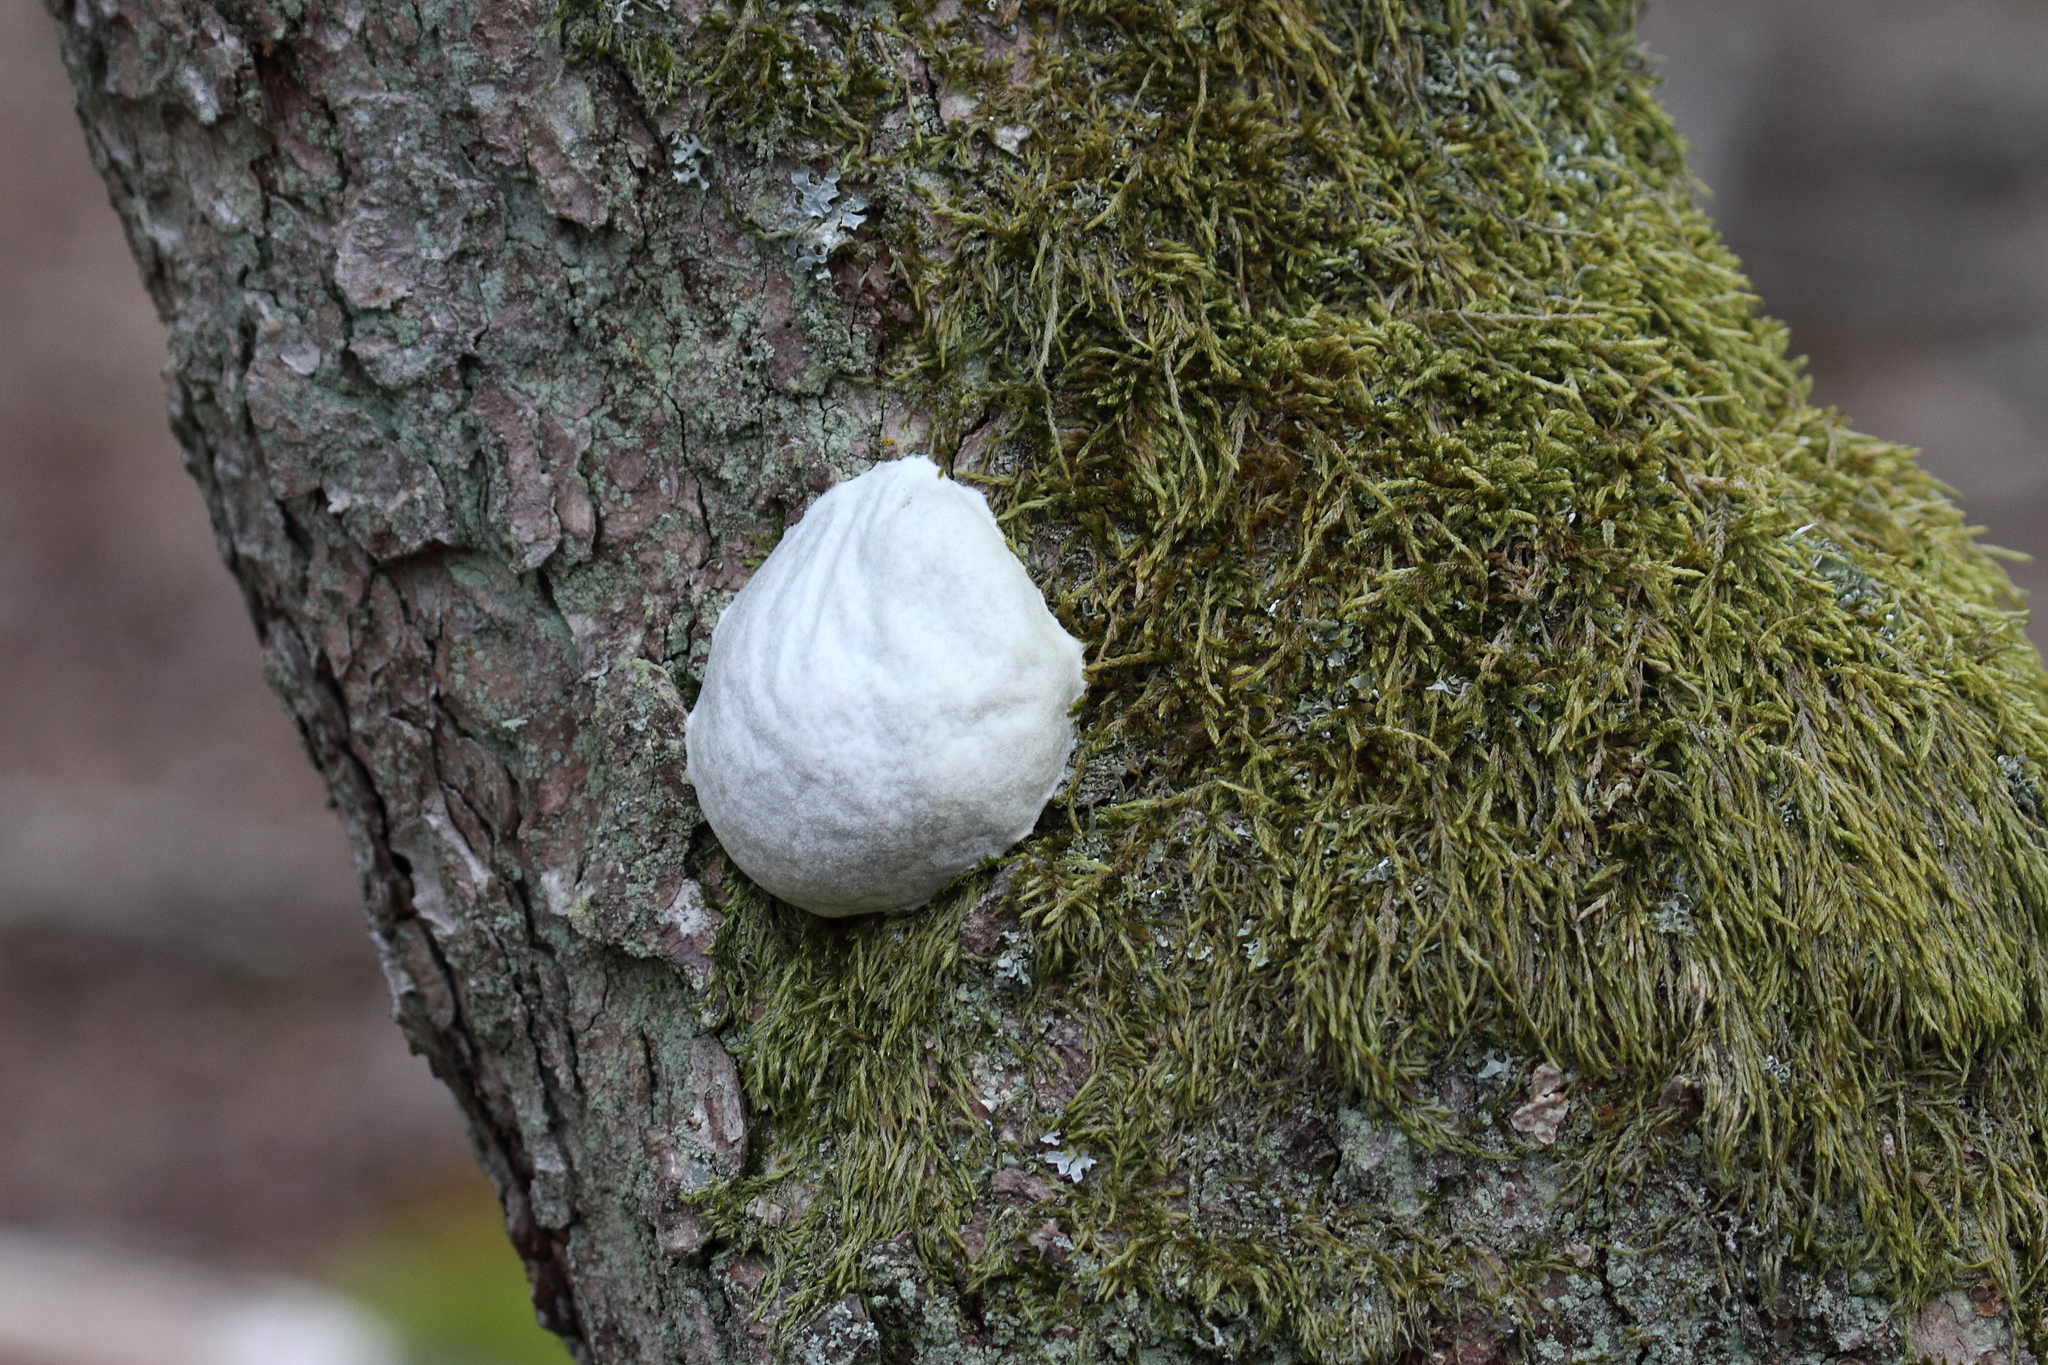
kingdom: Protozoa
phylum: Mycetozoa
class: Myxomycetes
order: Cribrariales
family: Tubiferaceae
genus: Reticularia
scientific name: Reticularia lycoperdon
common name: False puffball
